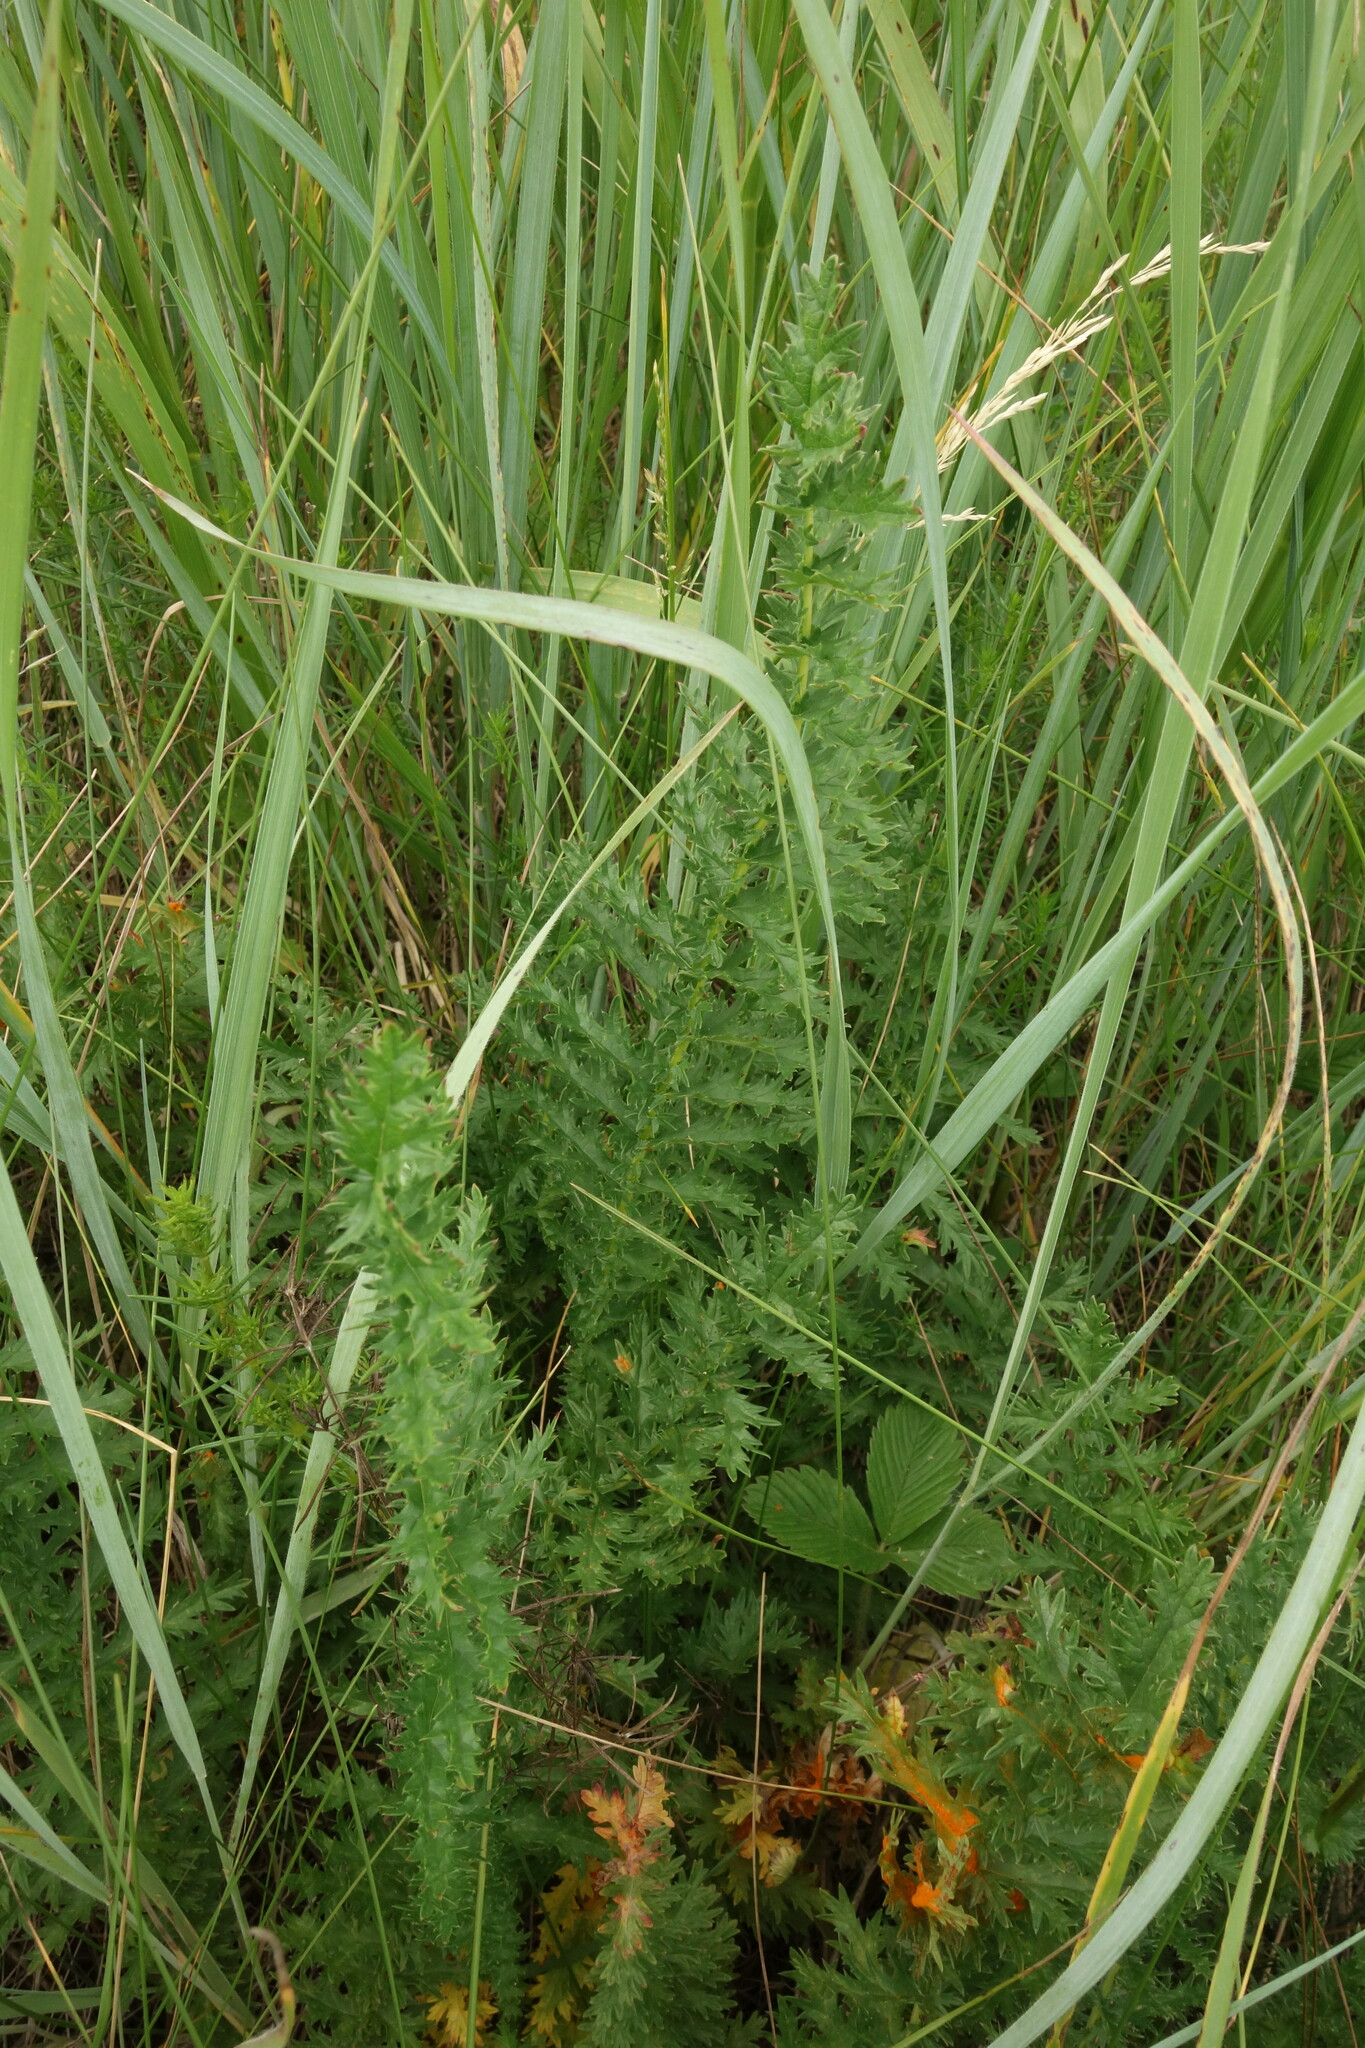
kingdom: Plantae
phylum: Tracheophyta
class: Magnoliopsida
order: Rosales
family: Rosaceae
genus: Filipendula
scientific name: Filipendula vulgaris
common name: Dropwort
